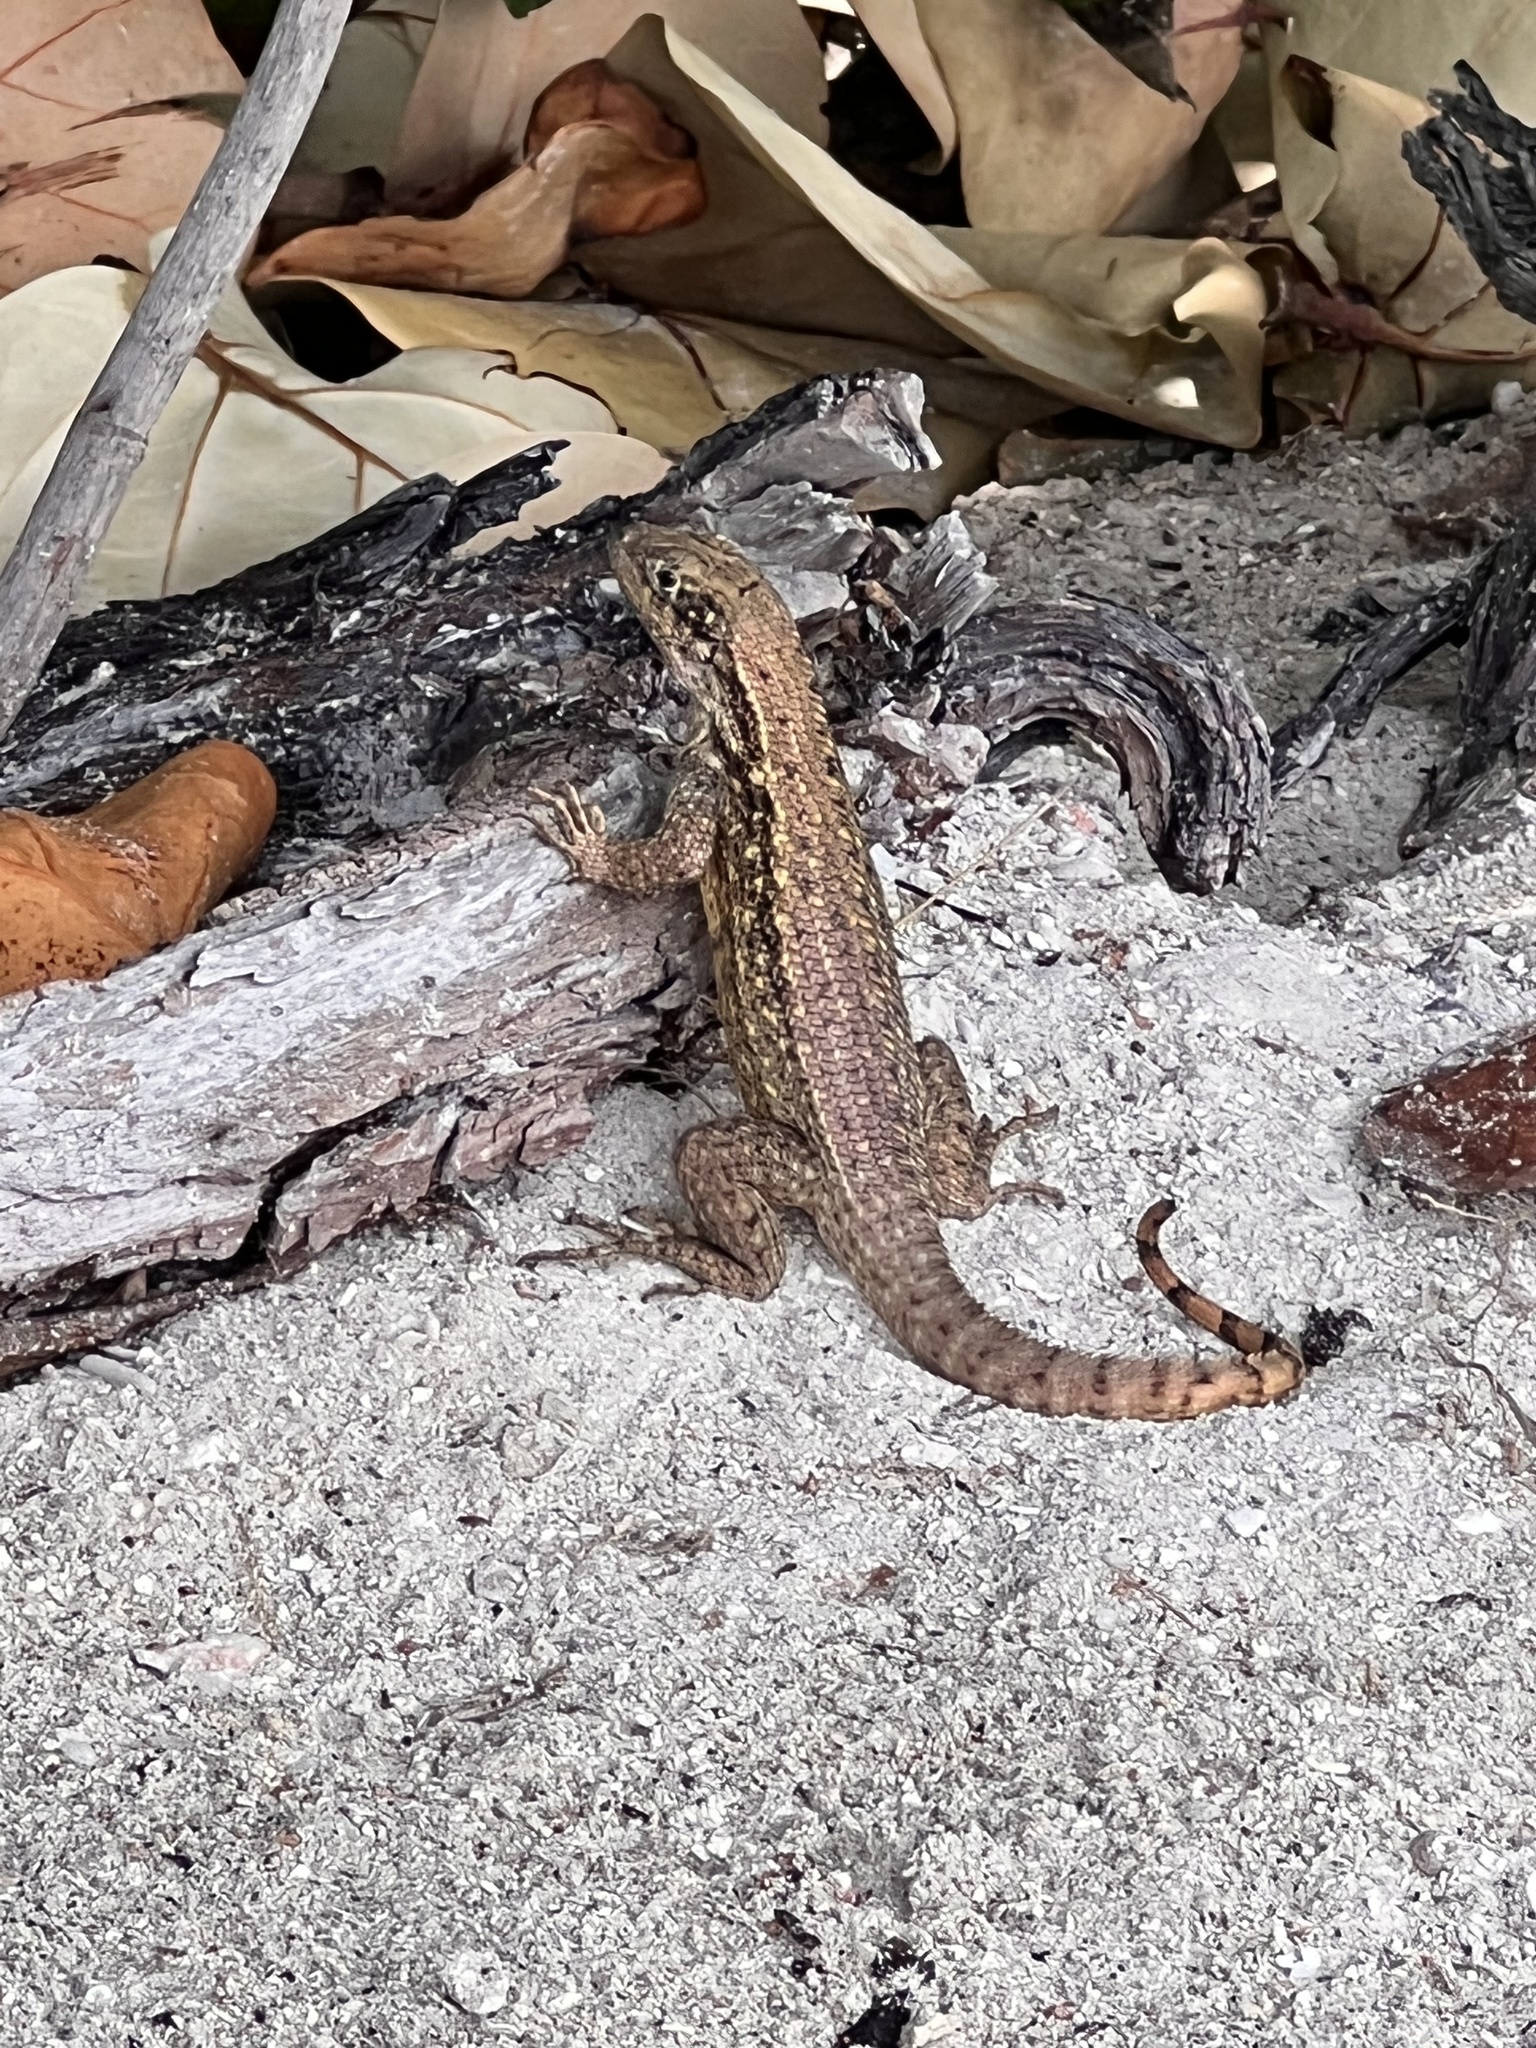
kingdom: Animalia
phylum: Chordata
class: Squamata
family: Leiocephalidae
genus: Leiocephalus
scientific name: Leiocephalus carinatus
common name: Northern curly-tailed lizard
